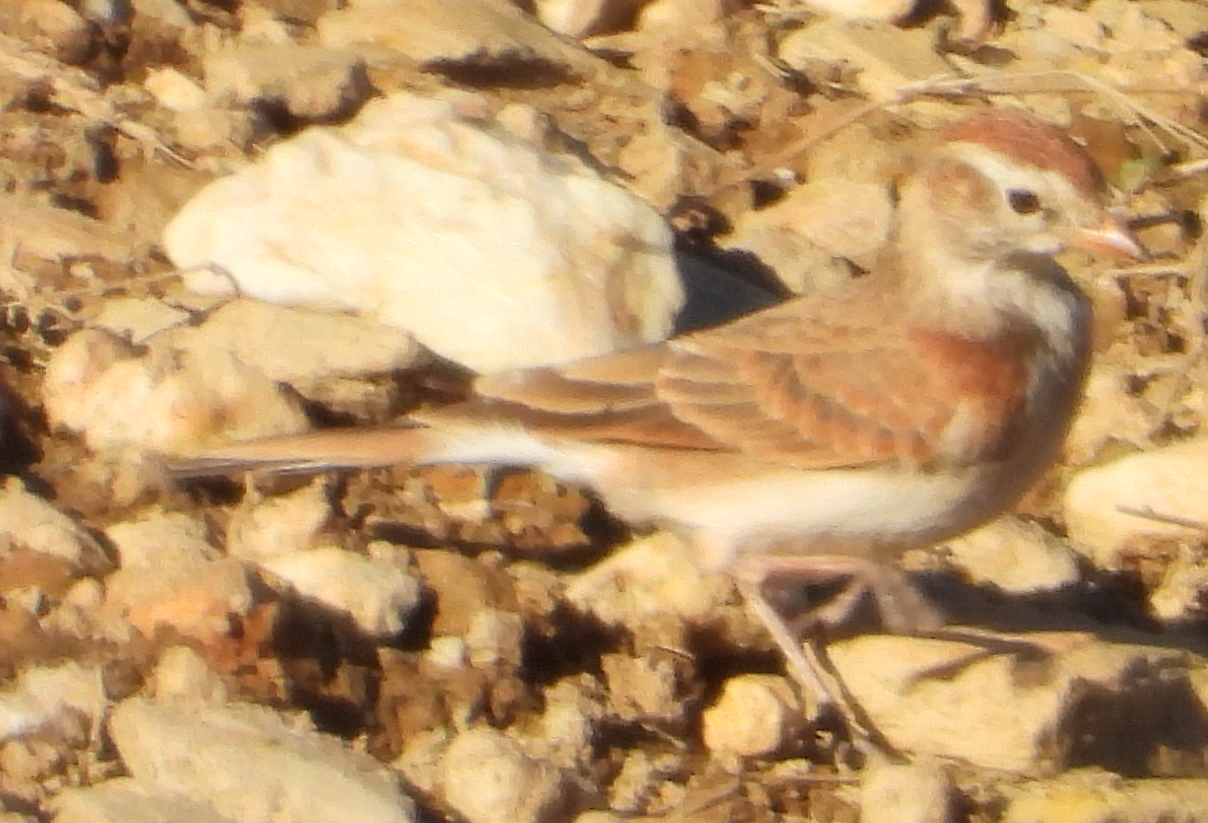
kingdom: Animalia
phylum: Chordata
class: Aves
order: Passeriformes
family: Alaudidae
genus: Calandrella
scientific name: Calandrella cinerea
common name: Red-capped lark
